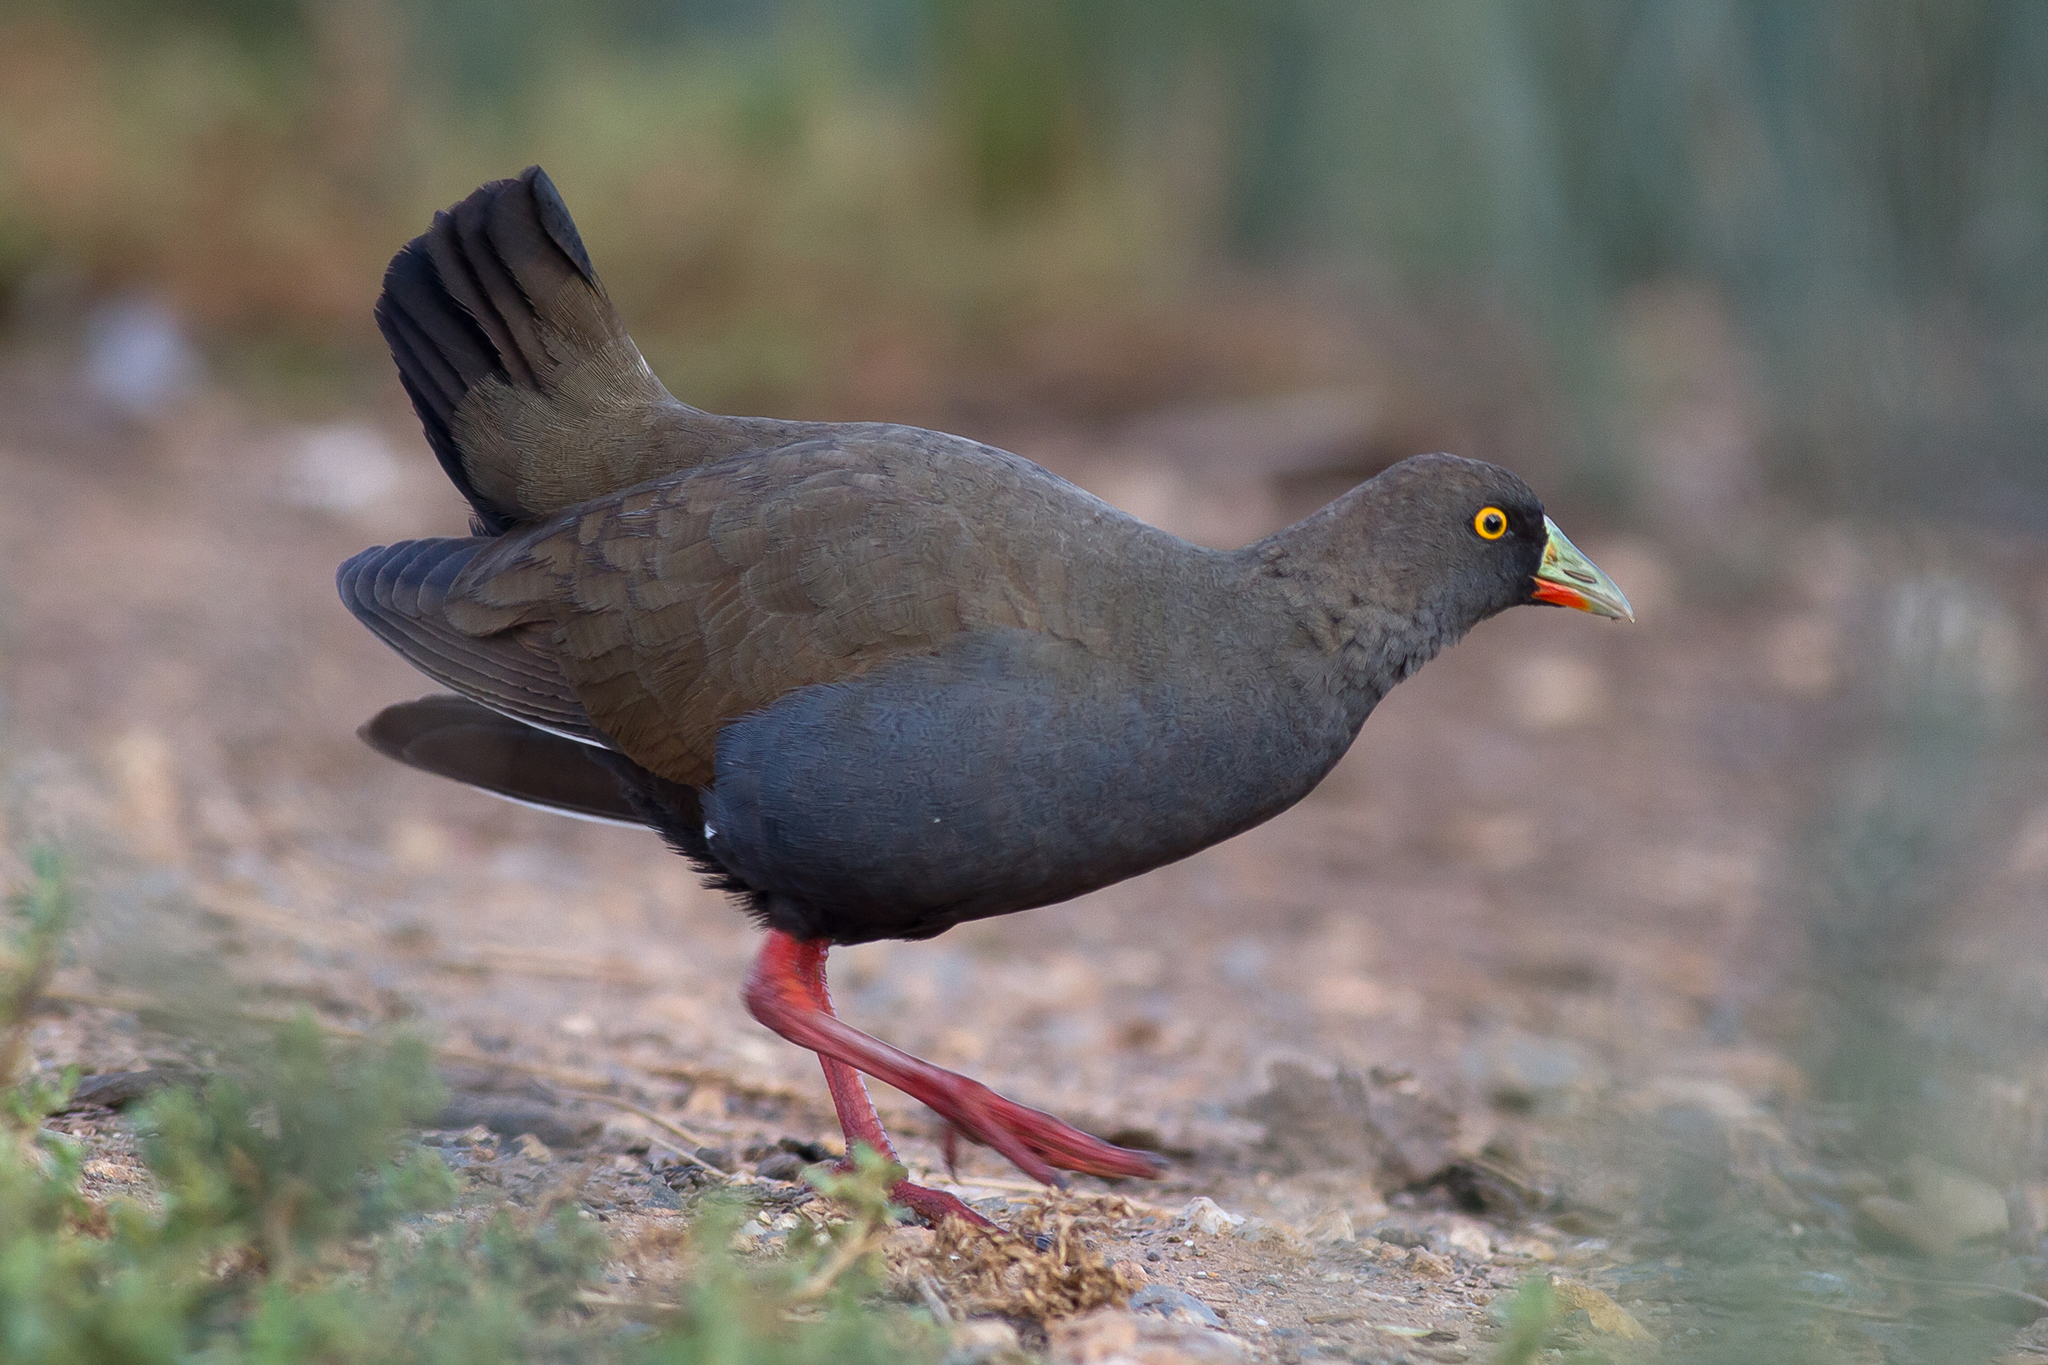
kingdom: Animalia
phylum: Chordata
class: Aves
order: Gruiformes
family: Rallidae
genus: Gallinula
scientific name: Gallinula ventralis
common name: Black-tailed nativehen
